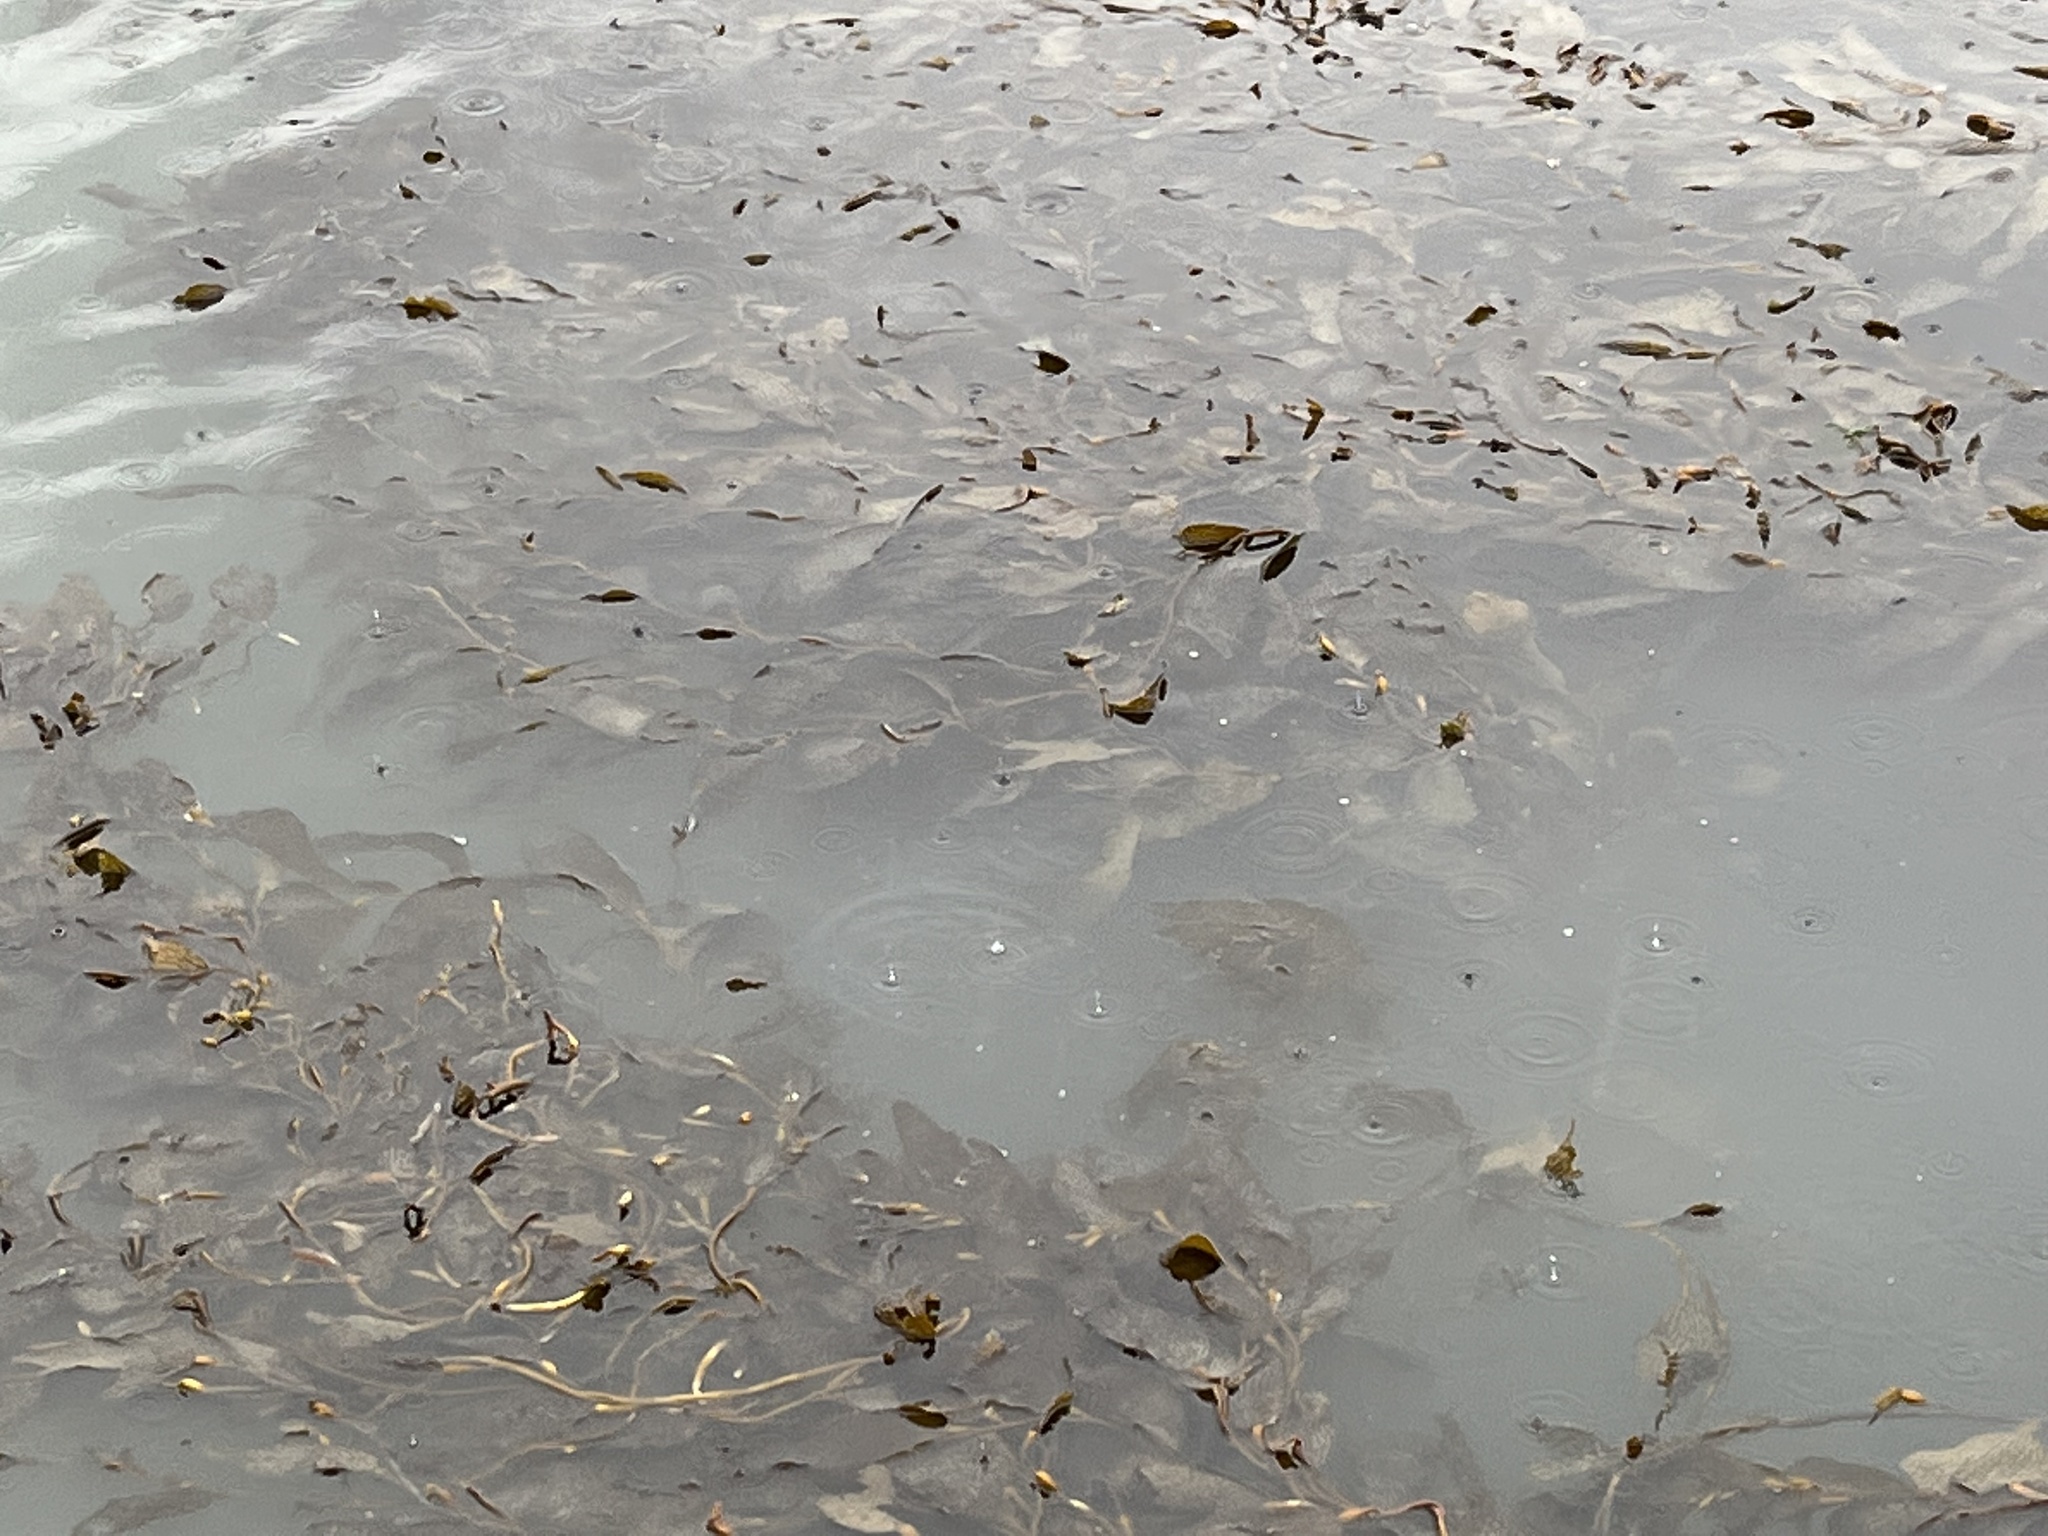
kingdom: Chromista
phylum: Ochrophyta
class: Phaeophyceae
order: Laminariales
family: Laminariaceae
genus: Macrocystis
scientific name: Macrocystis pyrifera
